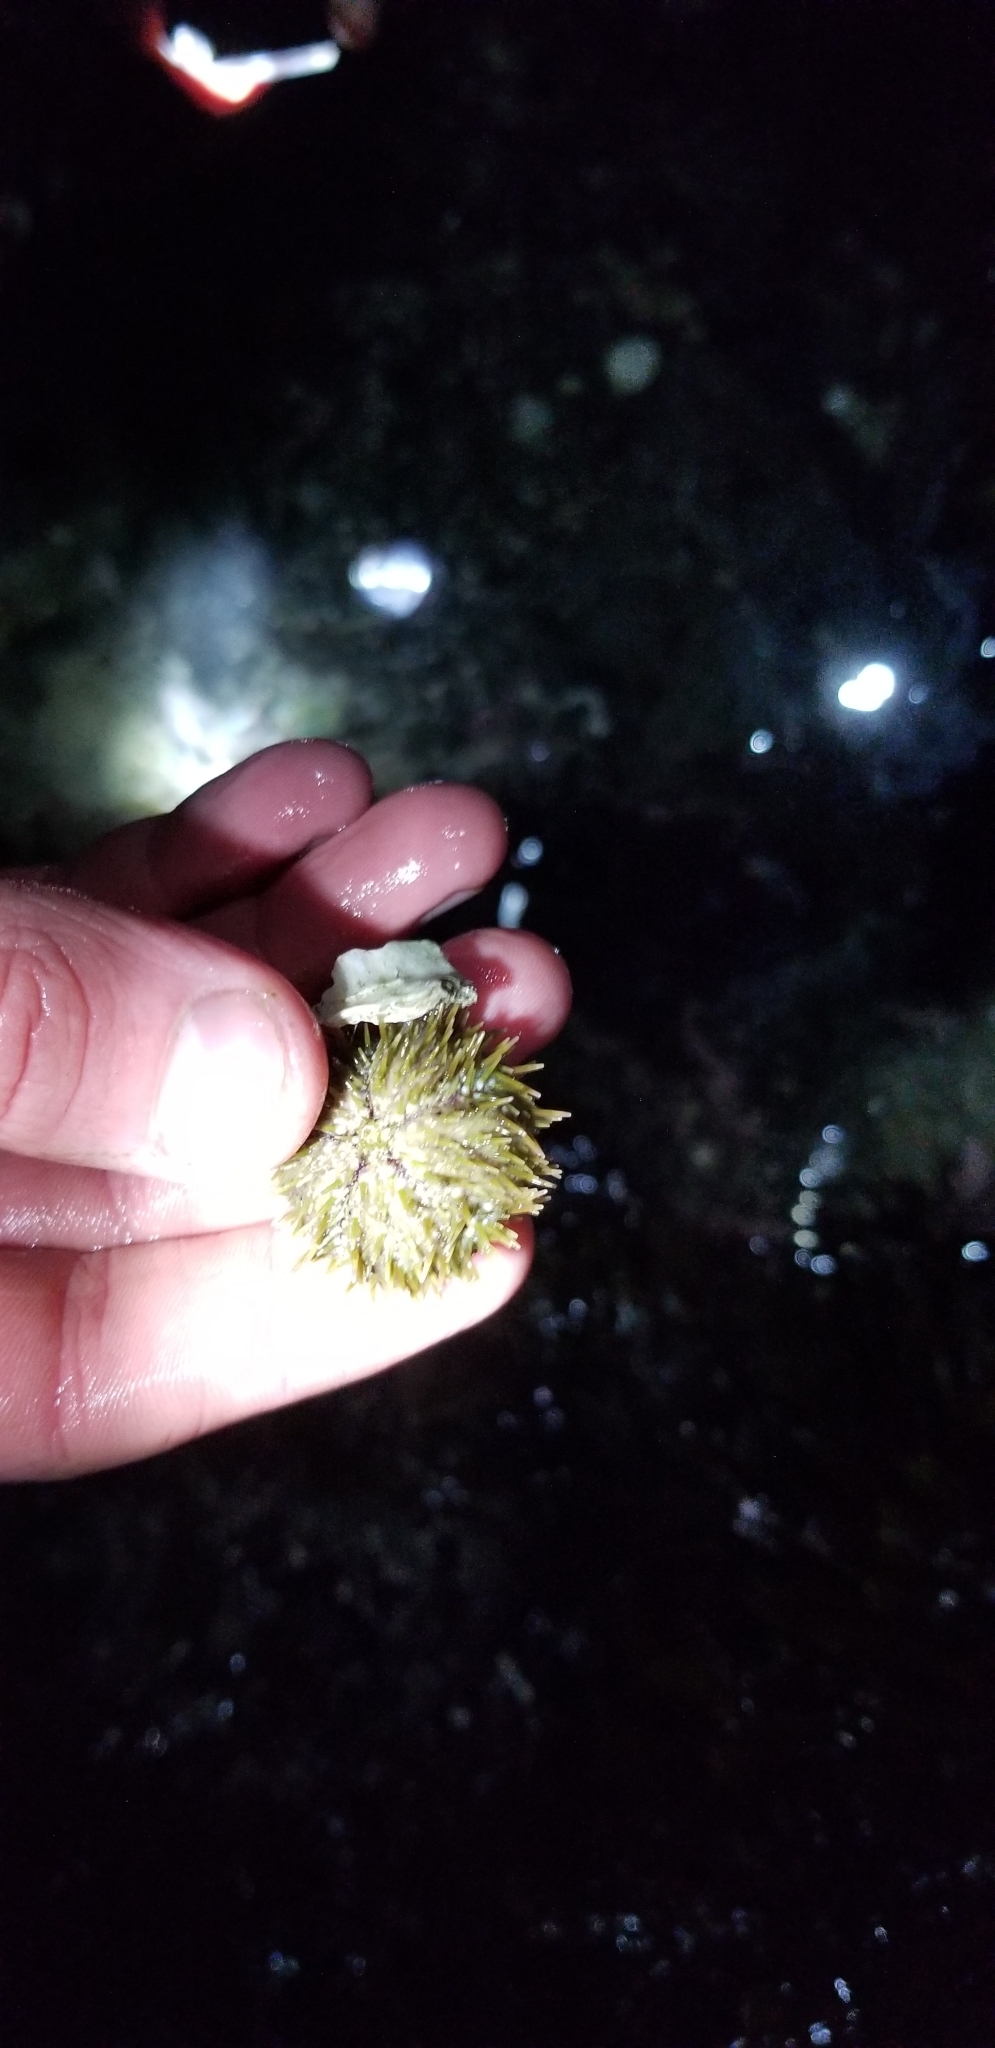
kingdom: Animalia
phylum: Echinodermata
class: Echinoidea
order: Camarodonta
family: Strongylocentrotidae
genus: Strongylocentrotus
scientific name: Strongylocentrotus droebachiensis
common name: Northern sea urchin
